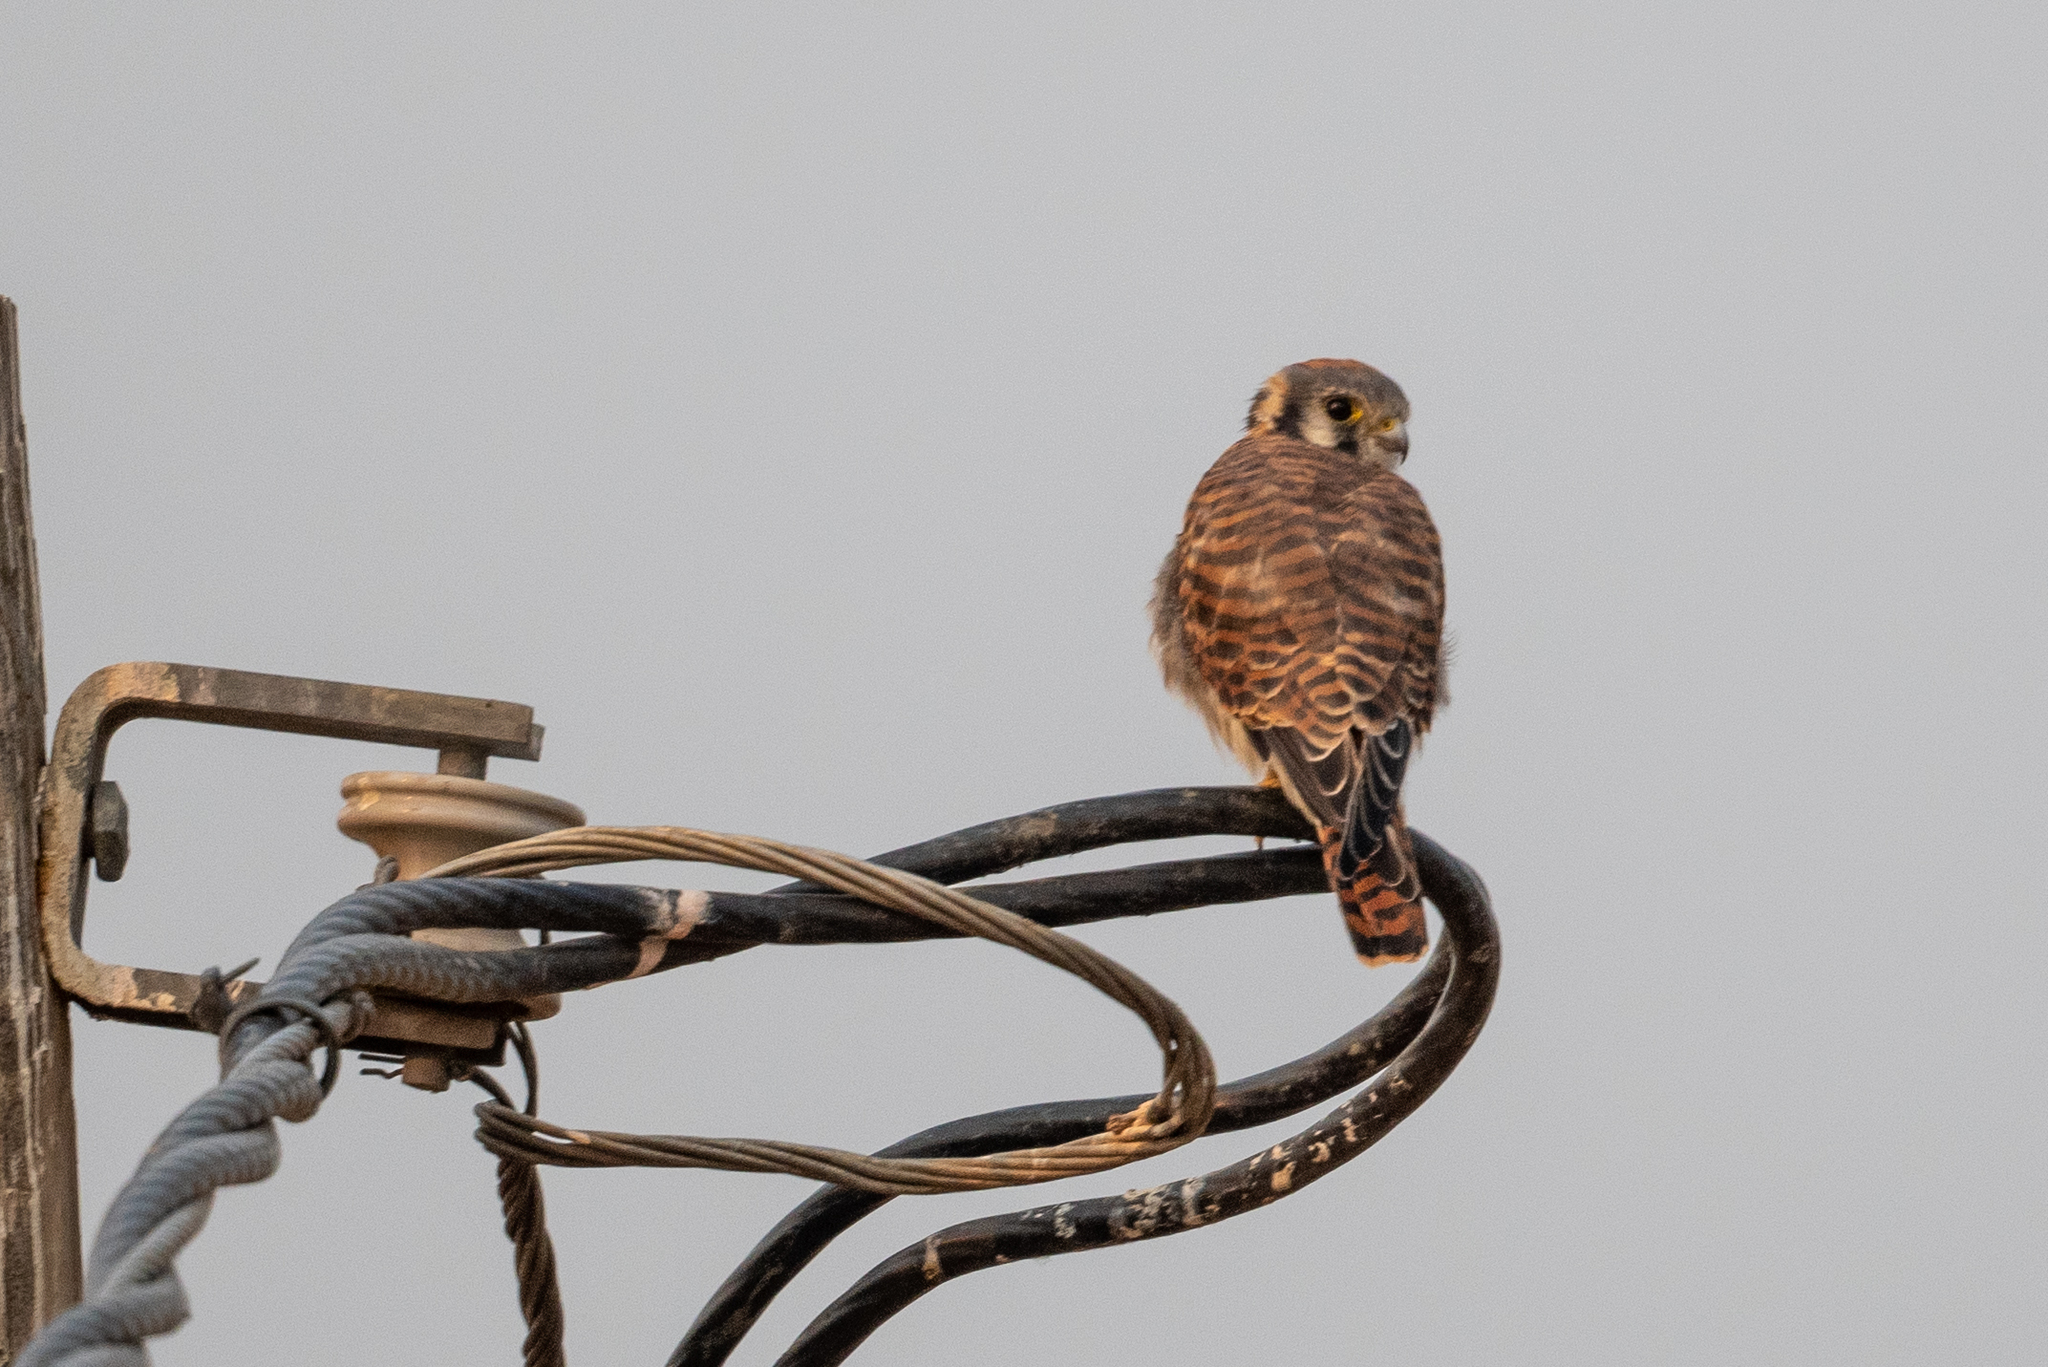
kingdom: Animalia
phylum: Chordata
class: Aves
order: Falconiformes
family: Falconidae
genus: Falco
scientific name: Falco sparverius
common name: American kestrel
